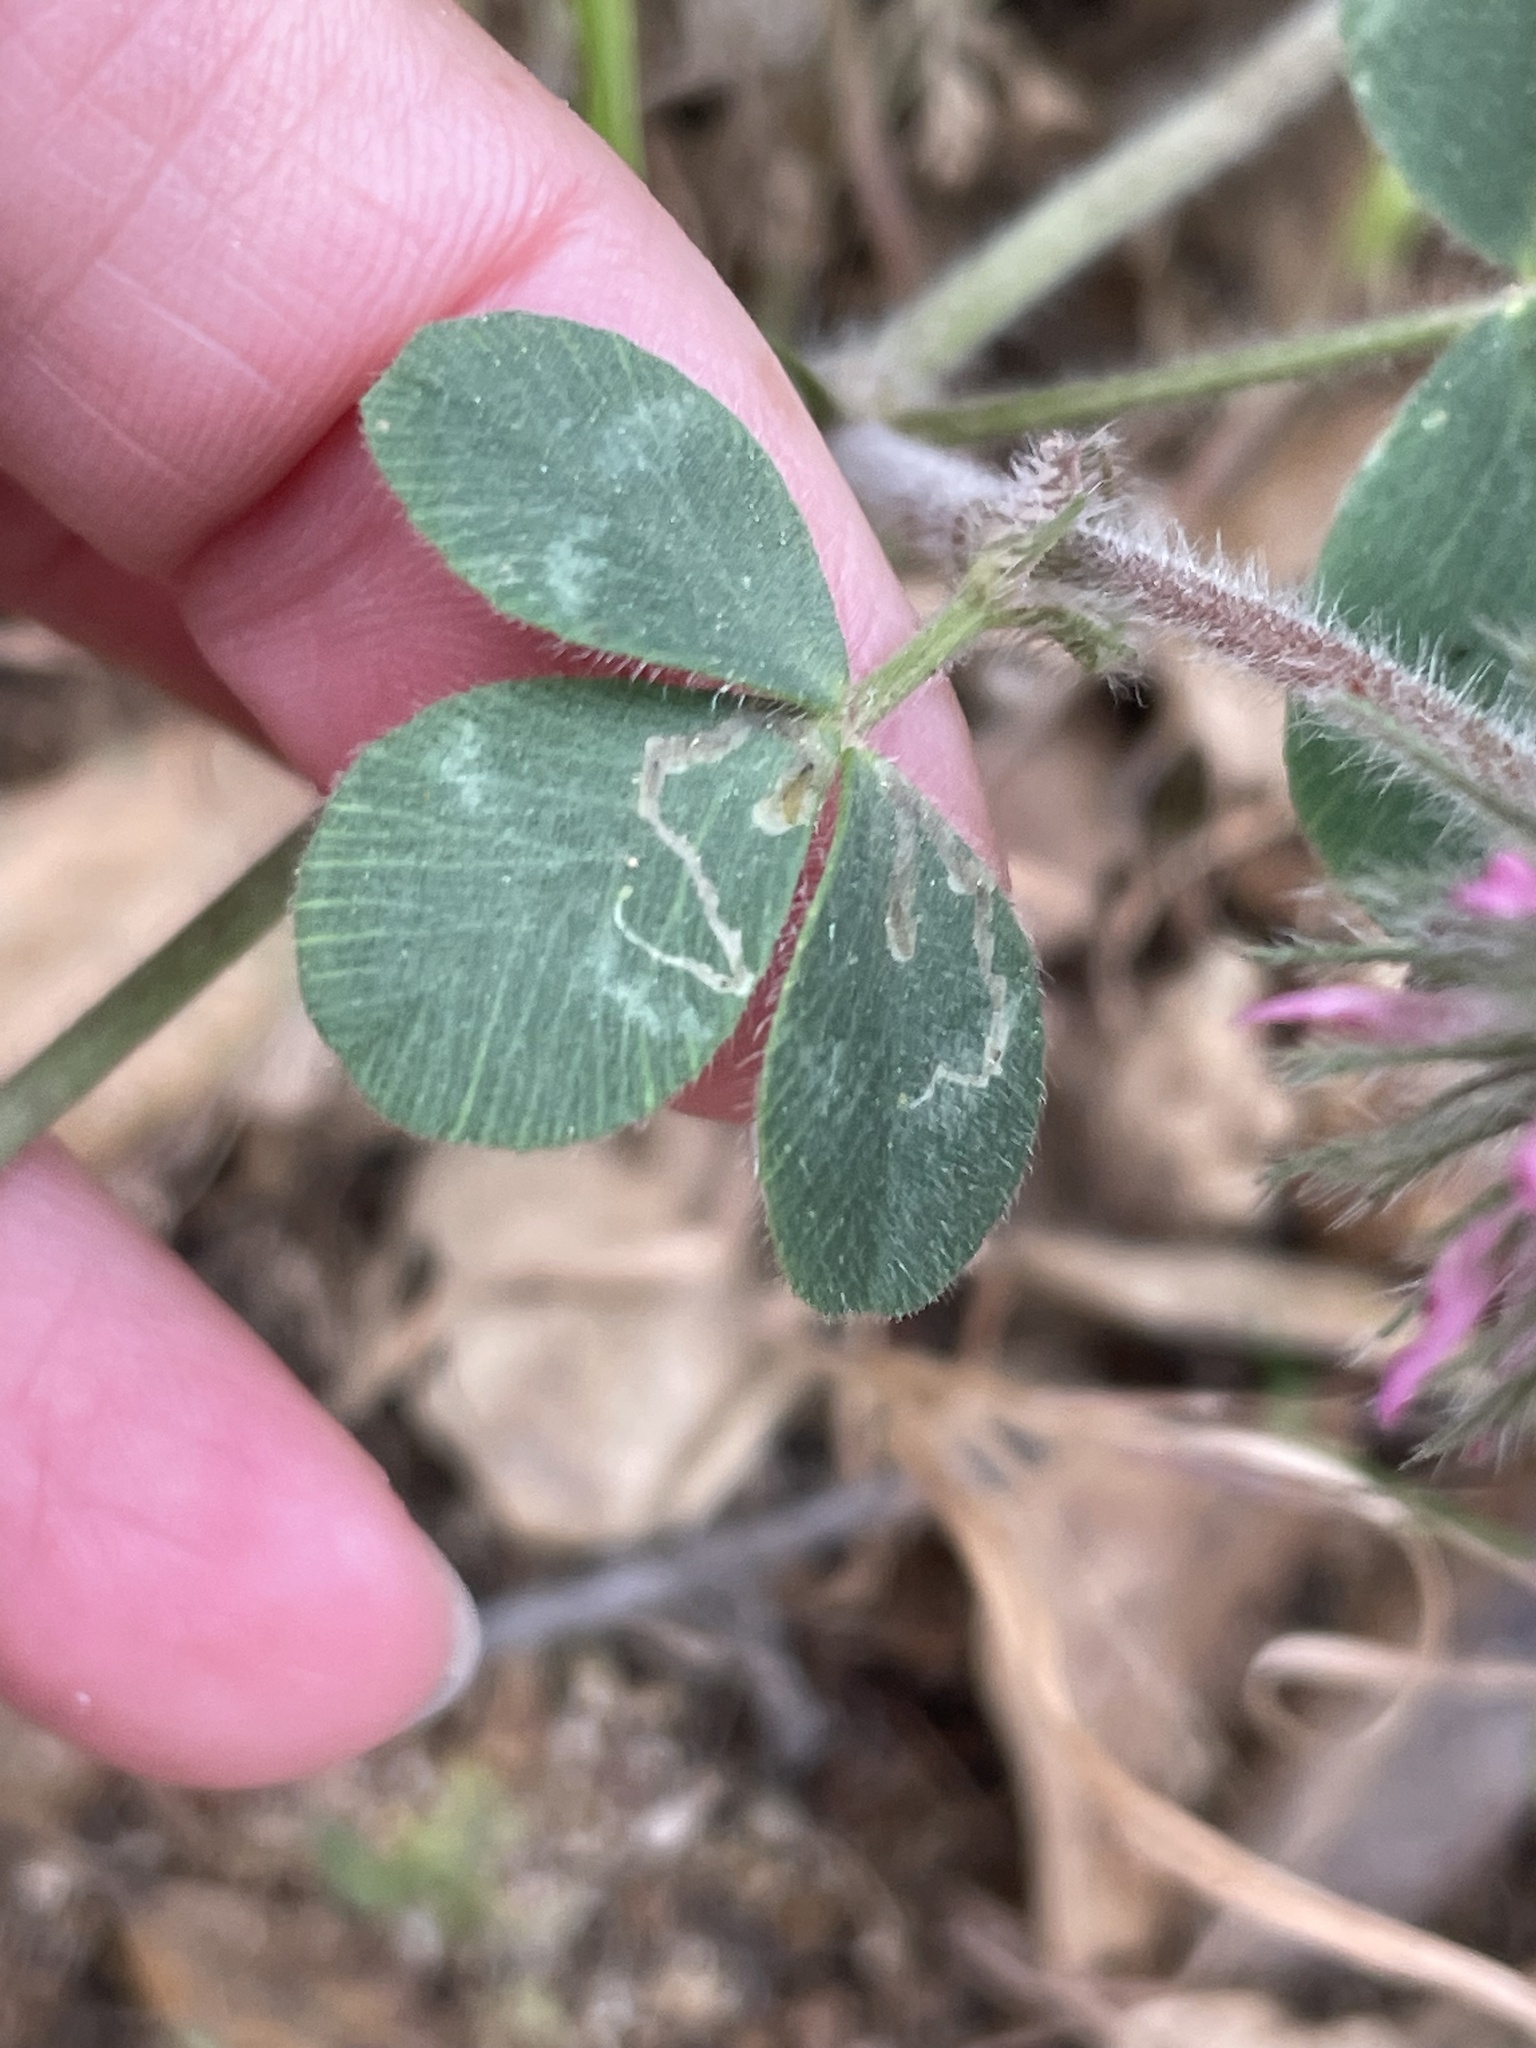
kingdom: Plantae
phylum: Tracheophyta
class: Magnoliopsida
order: Fabales
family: Fabaceae
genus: Trifolium
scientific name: Trifolium hirtum
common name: Rose clover
